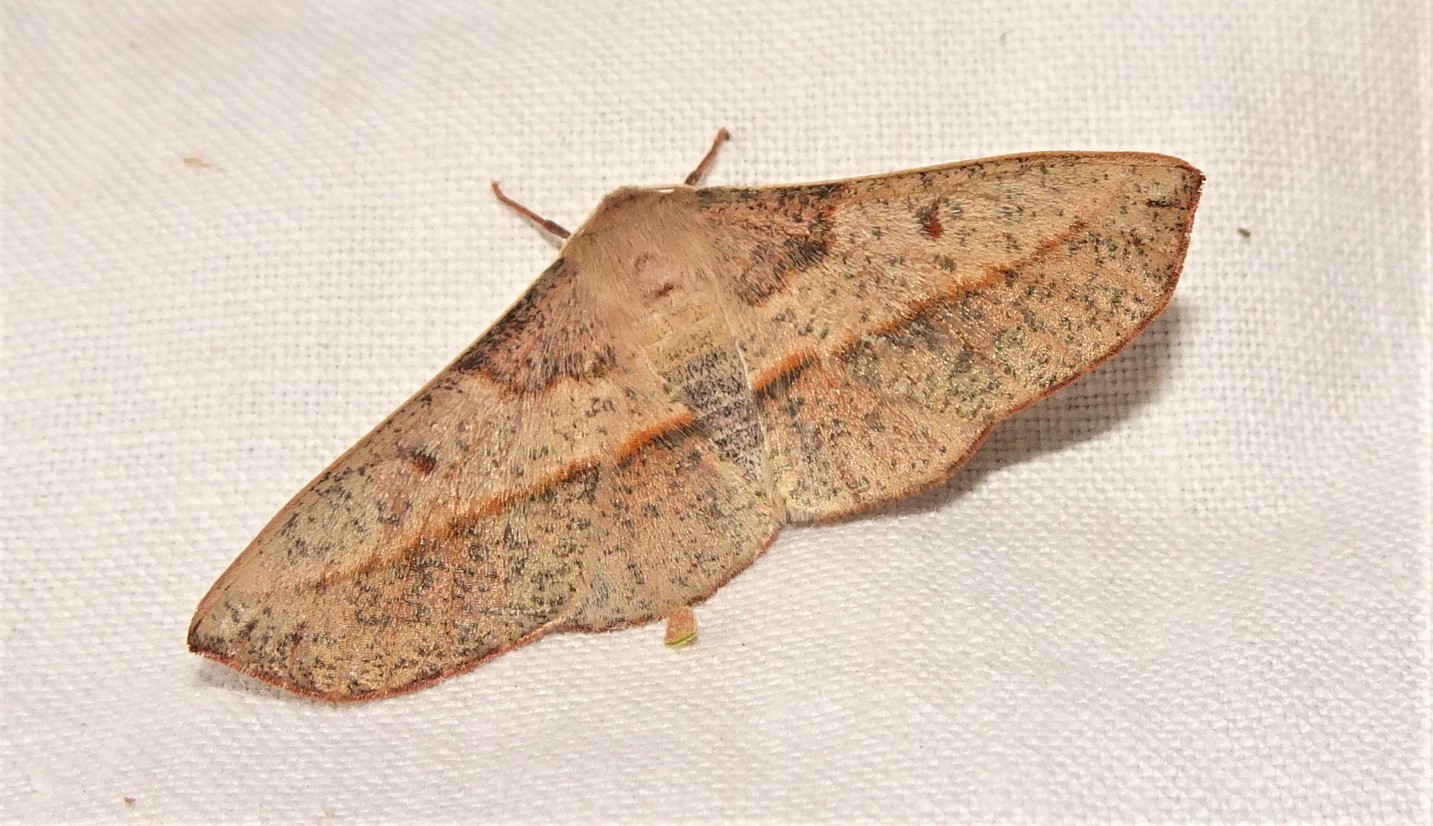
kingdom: Animalia
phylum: Arthropoda
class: Insecta
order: Lepidoptera
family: Geometridae
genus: Antictenia
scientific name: Antictenia punctunculus
